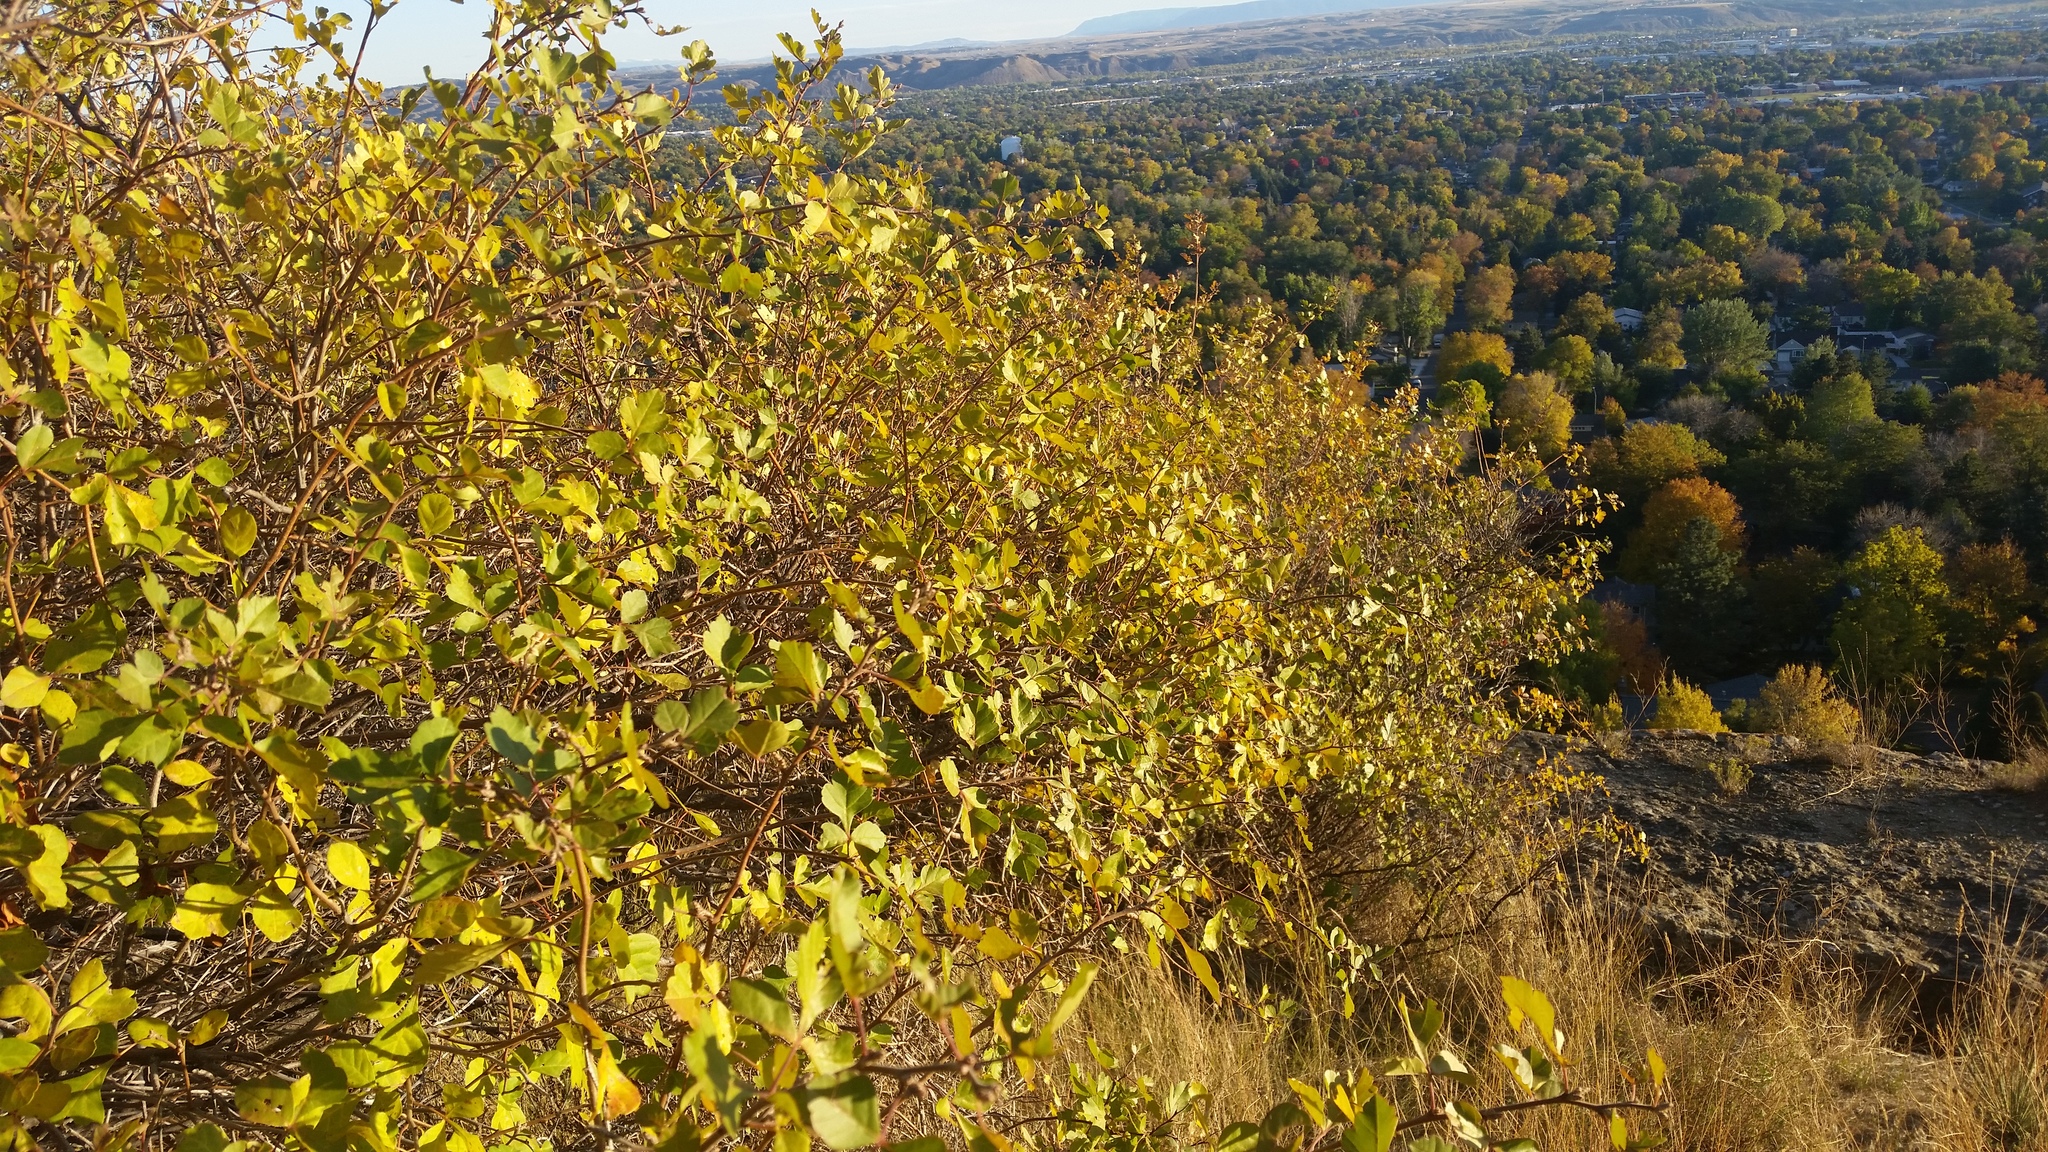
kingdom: Plantae
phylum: Tracheophyta
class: Magnoliopsida
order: Sapindales
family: Anacardiaceae
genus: Rhus
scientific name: Rhus aromatica
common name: Aromatic sumac
